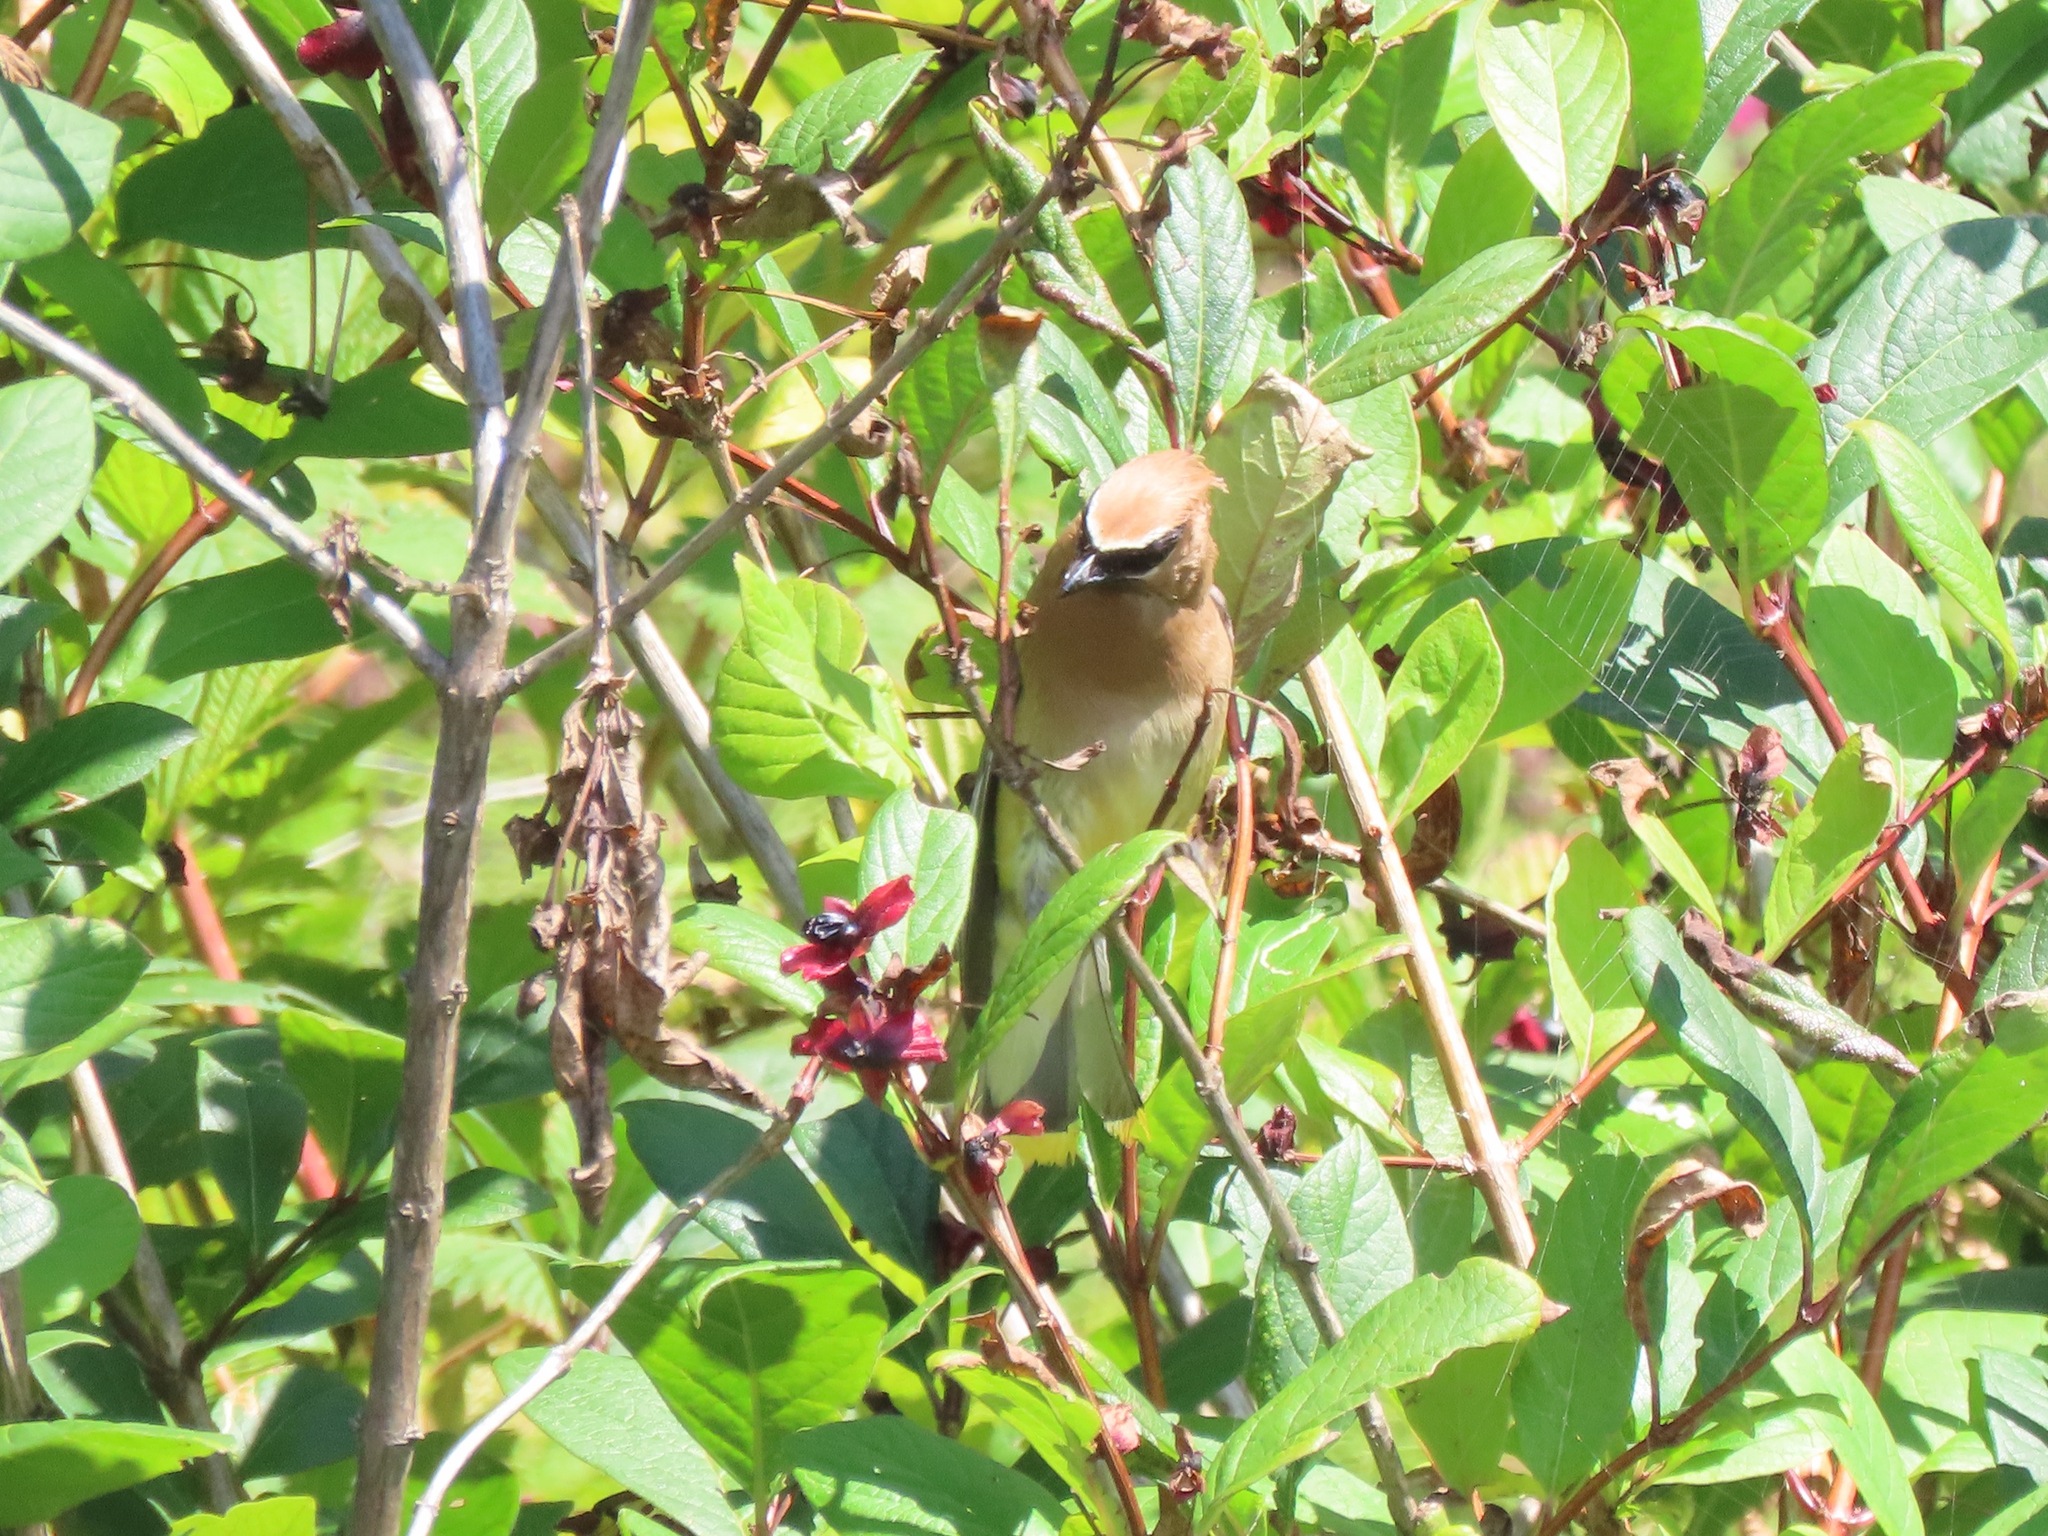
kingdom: Animalia
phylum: Chordata
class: Aves
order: Passeriformes
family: Bombycillidae
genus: Bombycilla
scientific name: Bombycilla cedrorum
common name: Cedar waxwing
